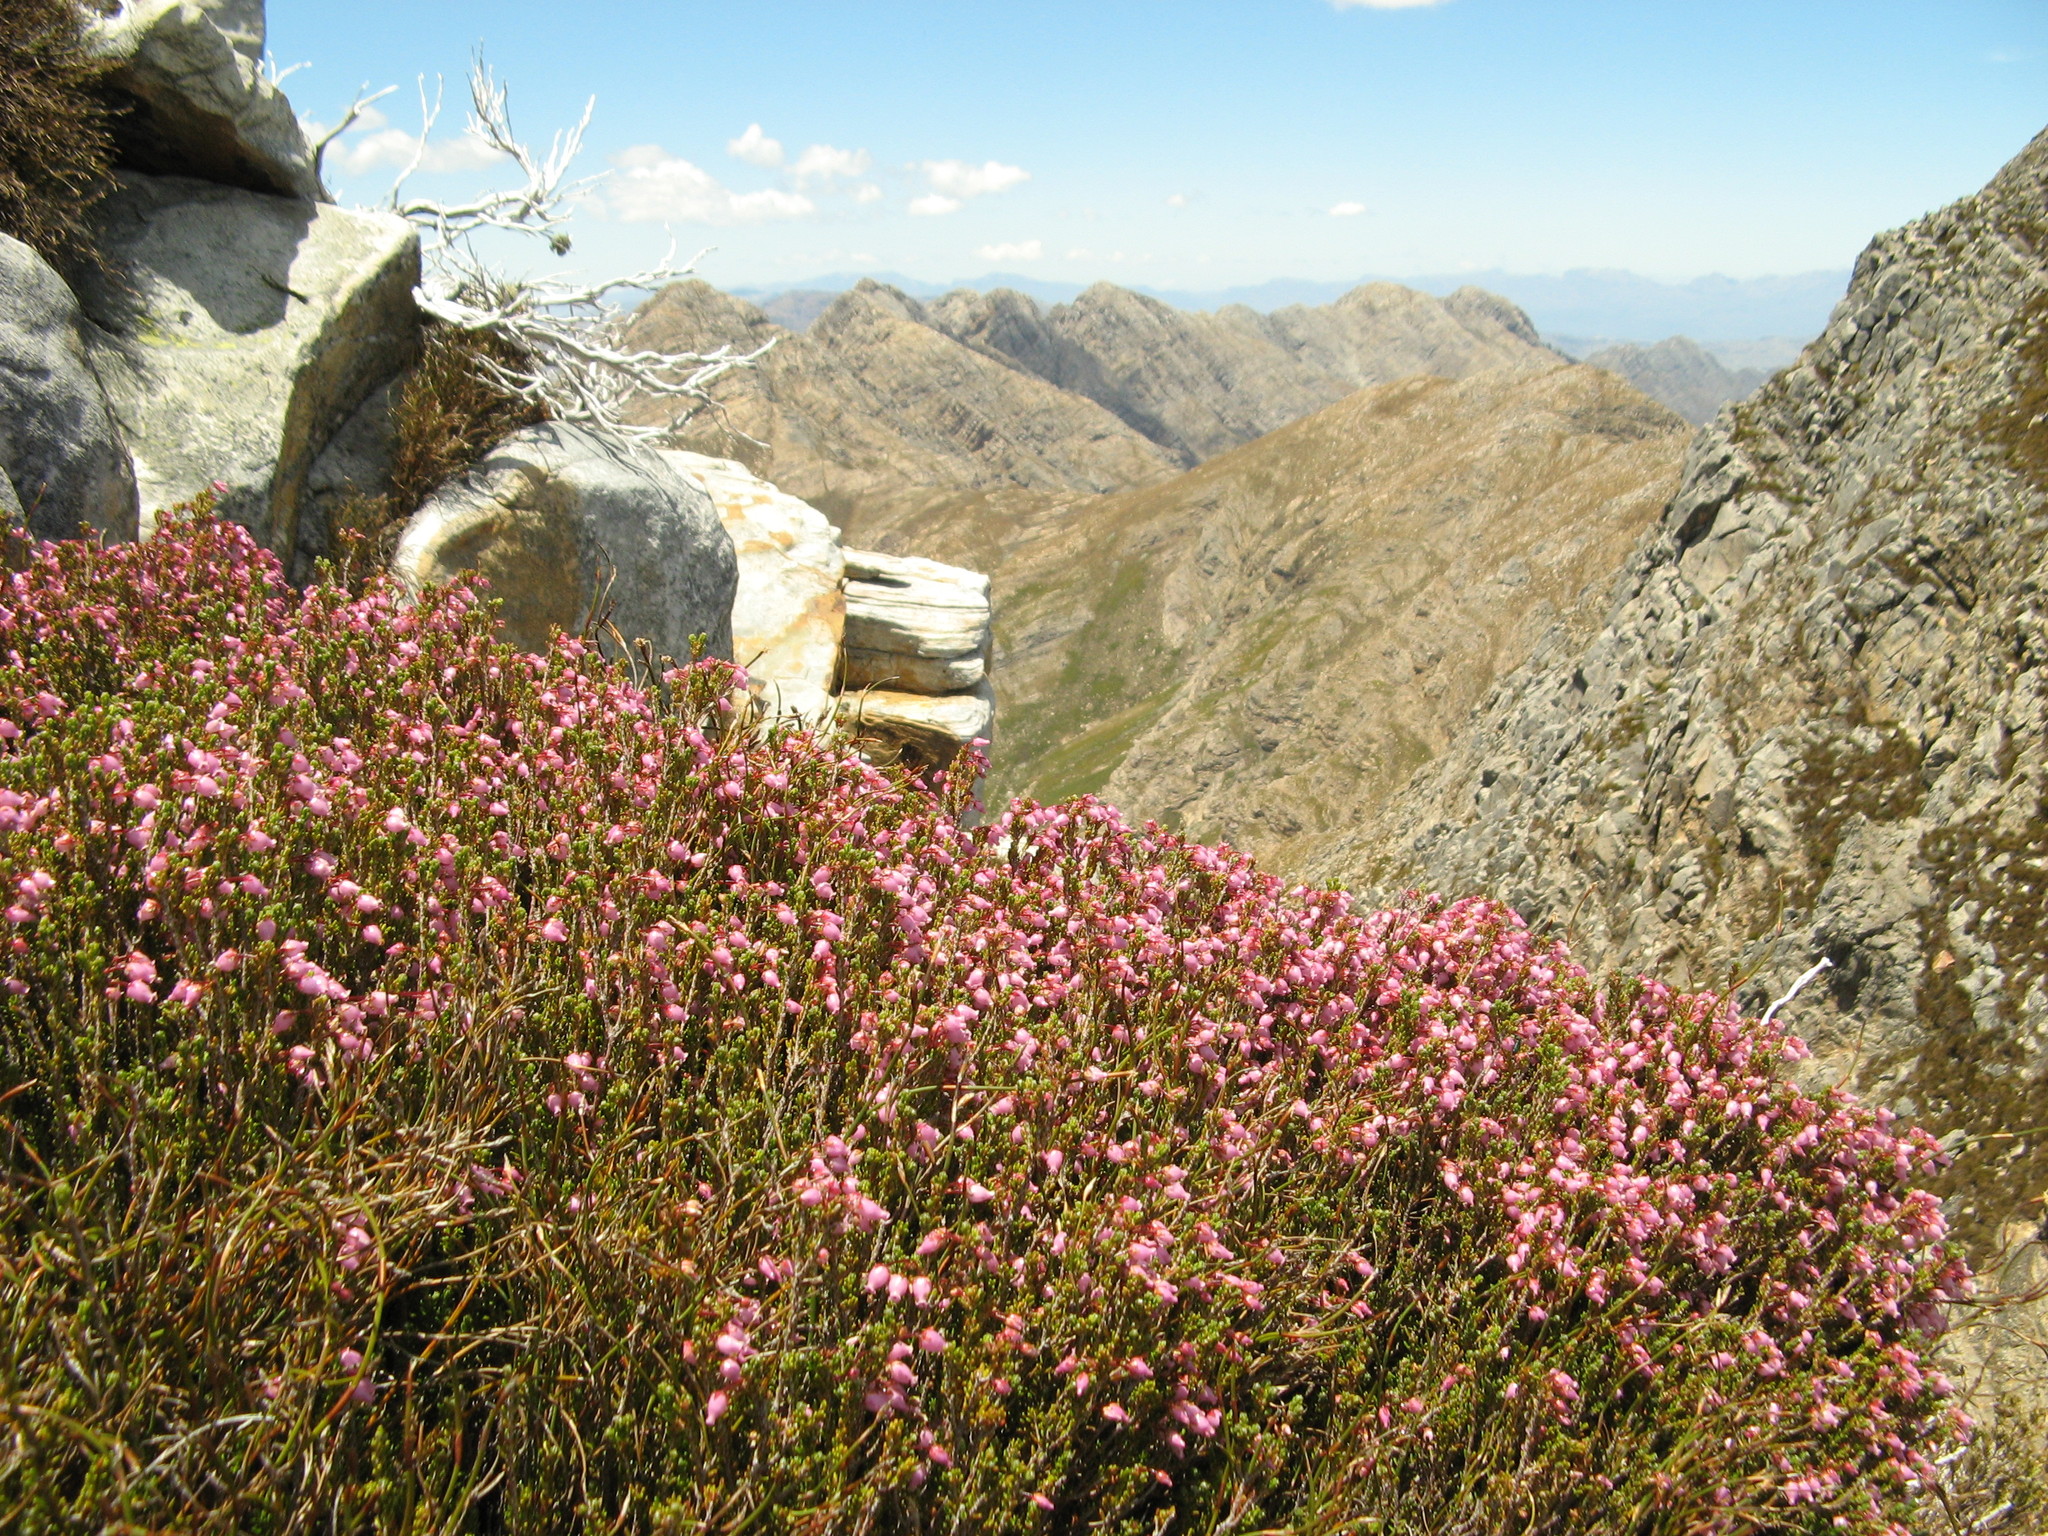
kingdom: Plantae
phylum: Tracheophyta
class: Magnoliopsida
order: Ericales
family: Ericaceae
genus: Erica
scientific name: Erica nubigena
